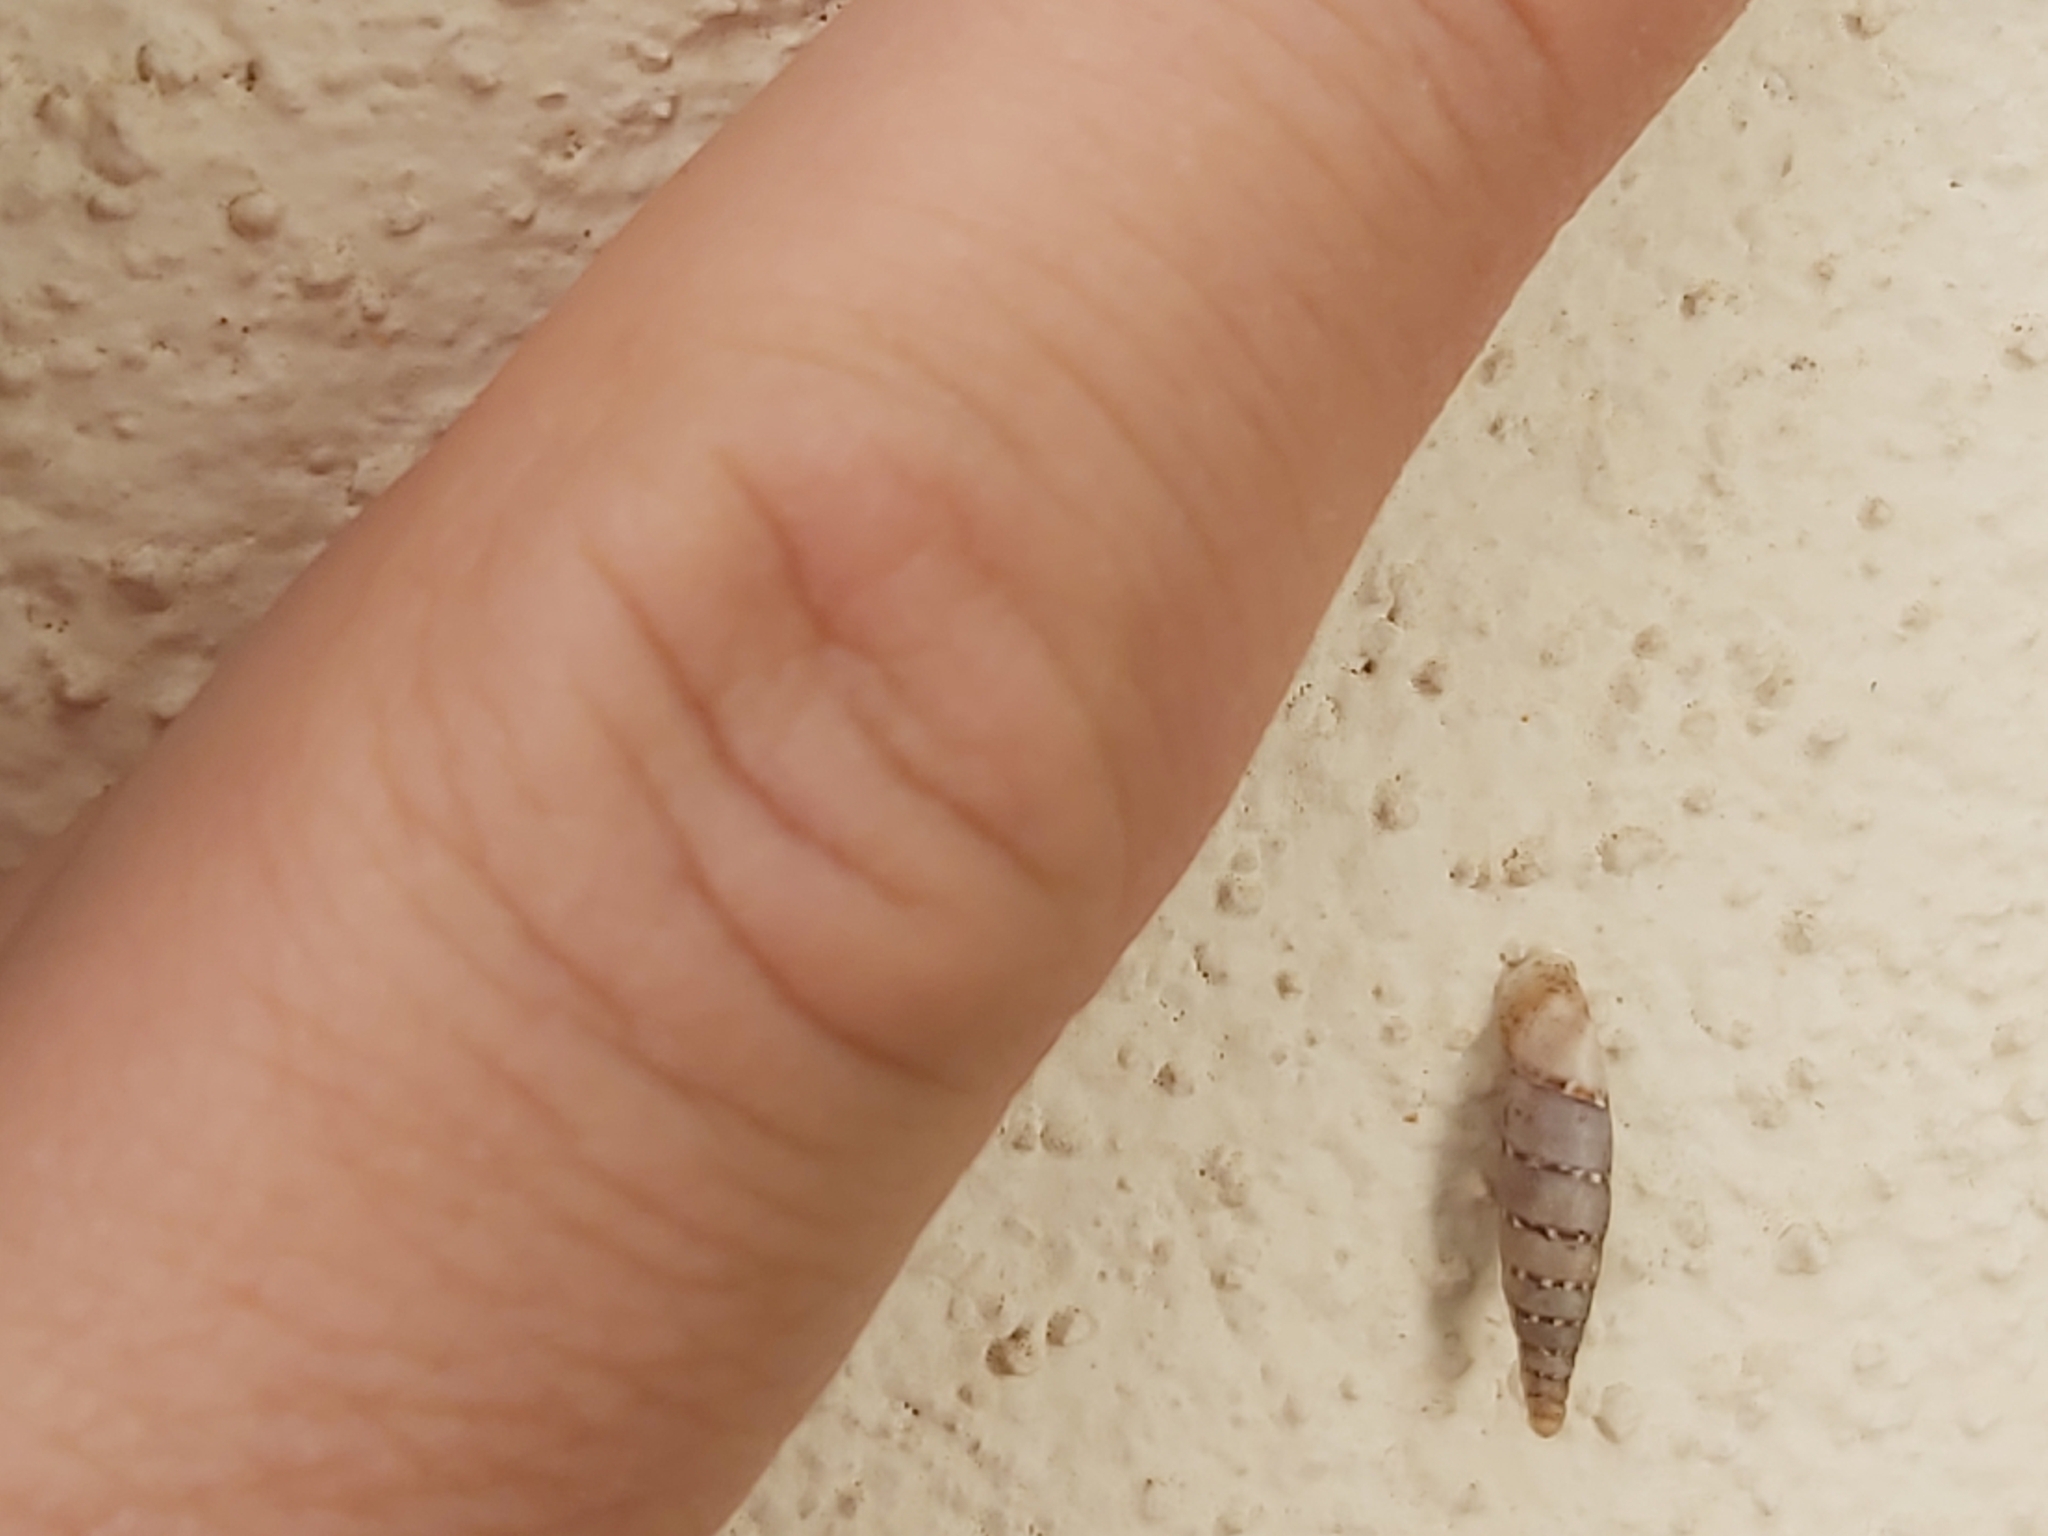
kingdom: Animalia
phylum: Mollusca
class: Gastropoda
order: Stylommatophora
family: Clausiliidae
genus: Papillifera
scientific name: Papillifera papillaris
